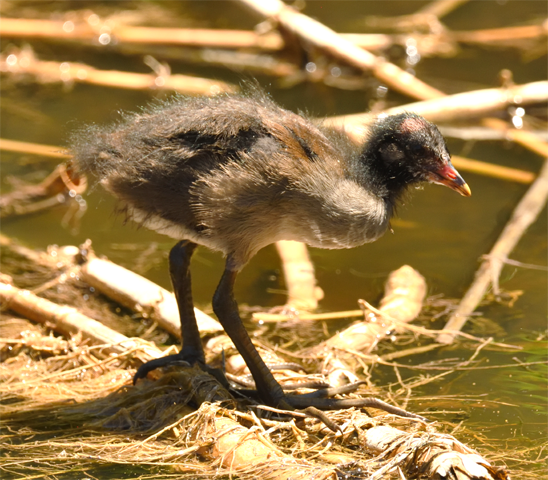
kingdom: Animalia
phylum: Chordata
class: Aves
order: Gruiformes
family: Rallidae
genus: Gallinula
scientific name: Gallinula chloropus
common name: Common moorhen
